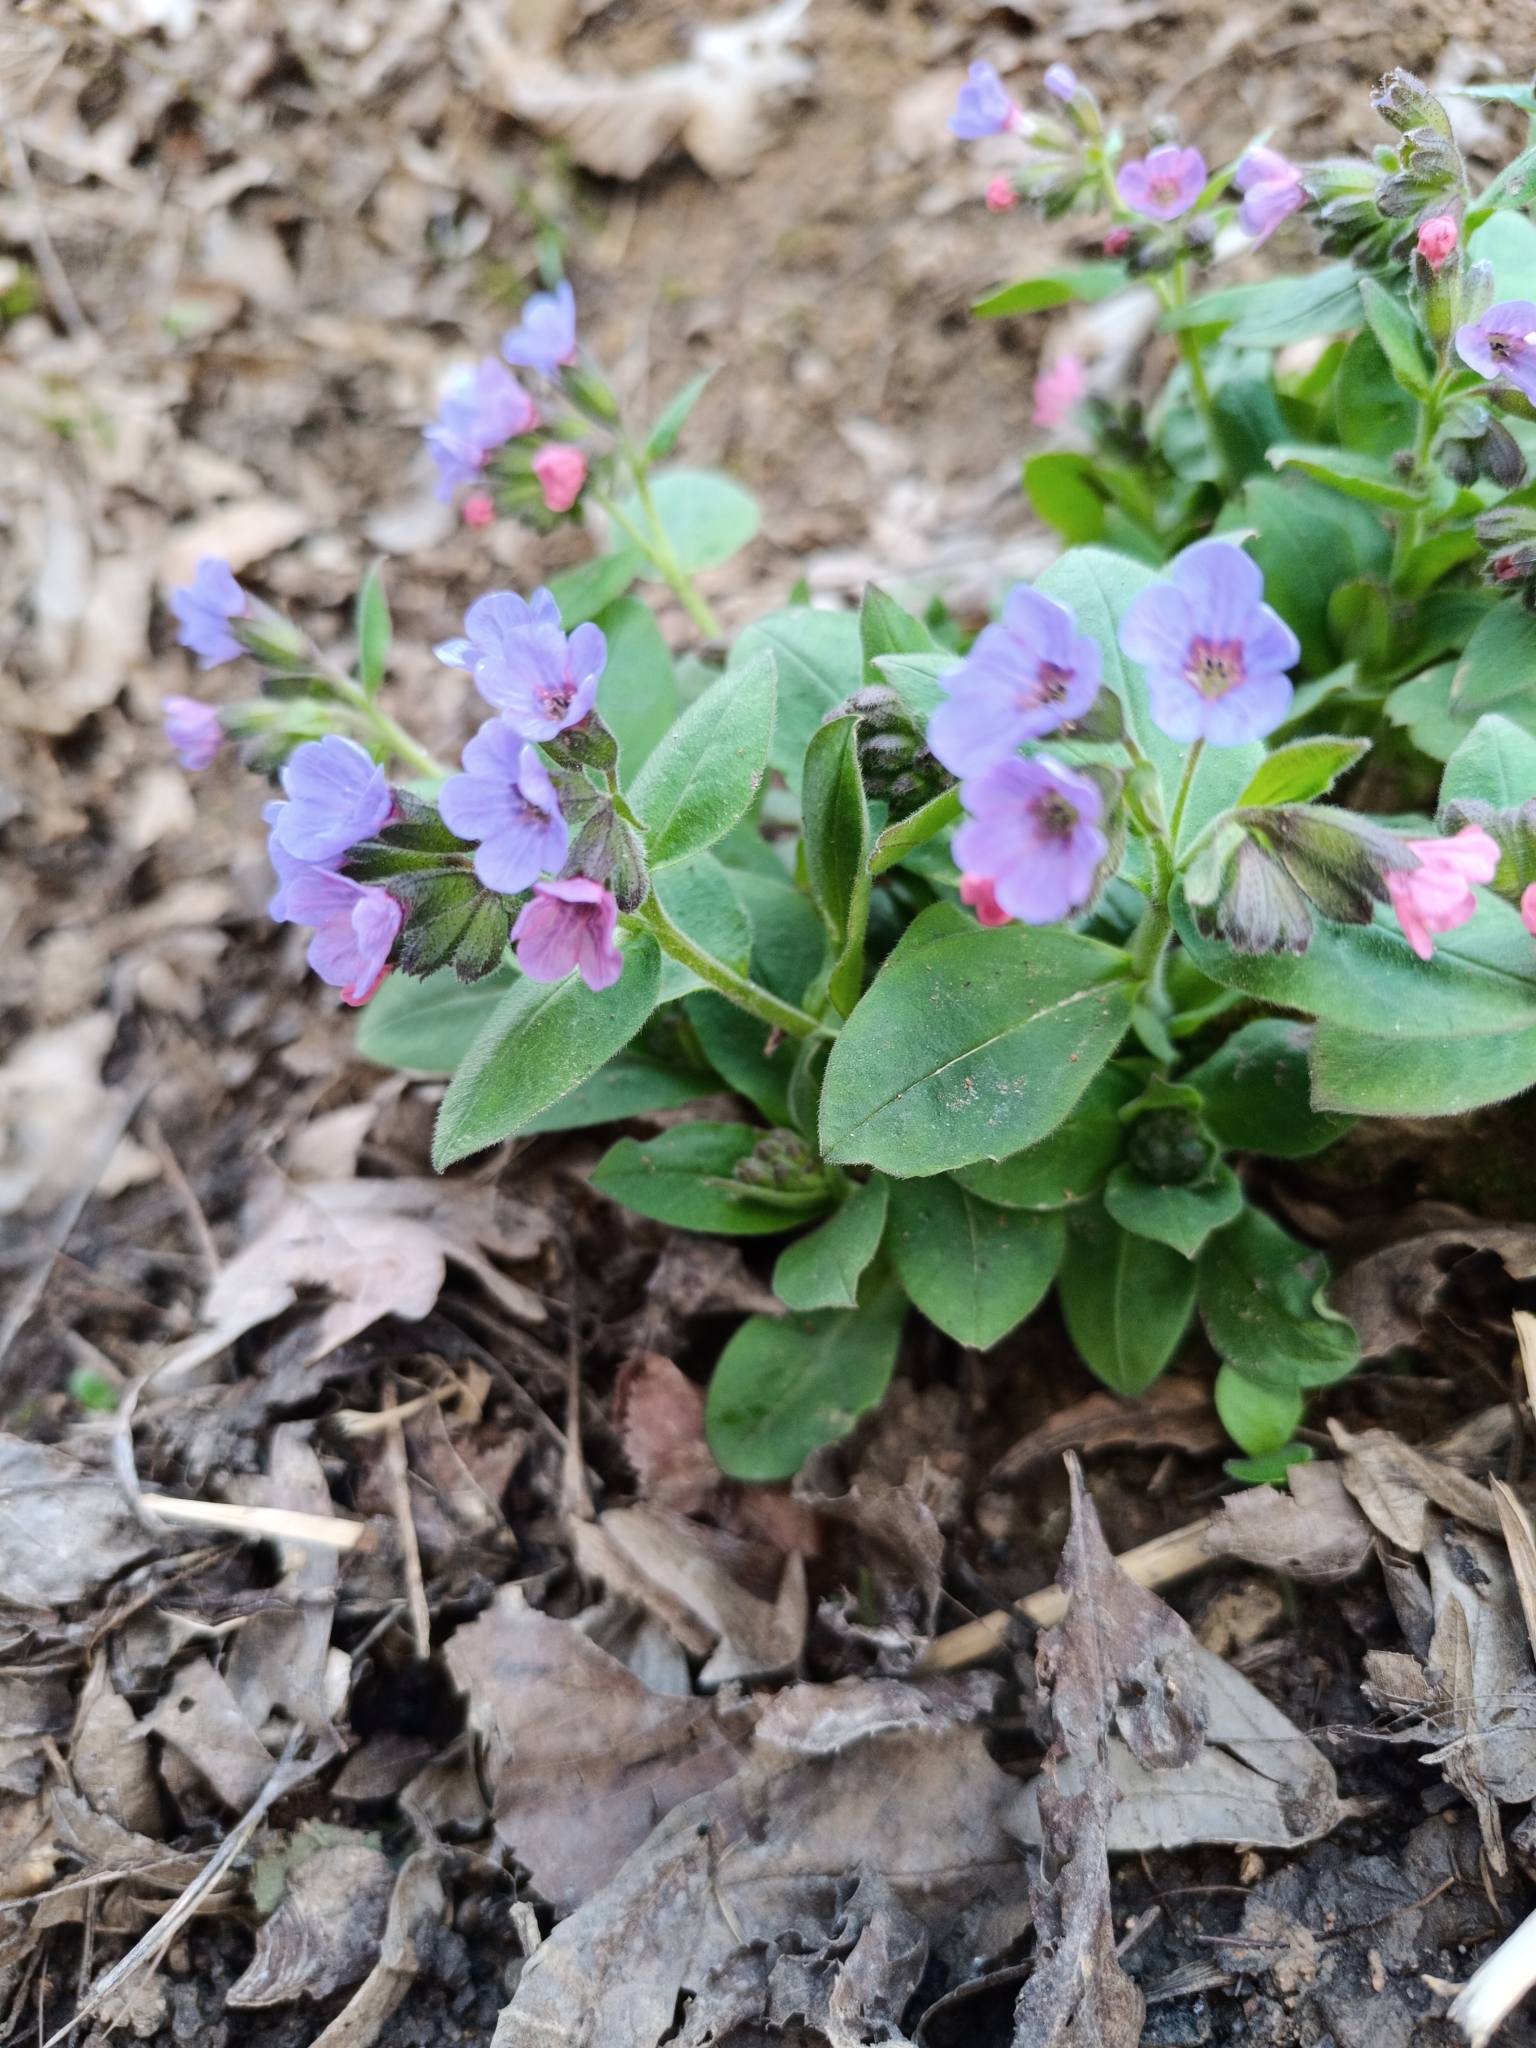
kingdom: Plantae
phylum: Tracheophyta
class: Magnoliopsida
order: Boraginales
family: Boraginaceae
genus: Pulmonaria
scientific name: Pulmonaria obscura
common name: Suffolk lungwort
